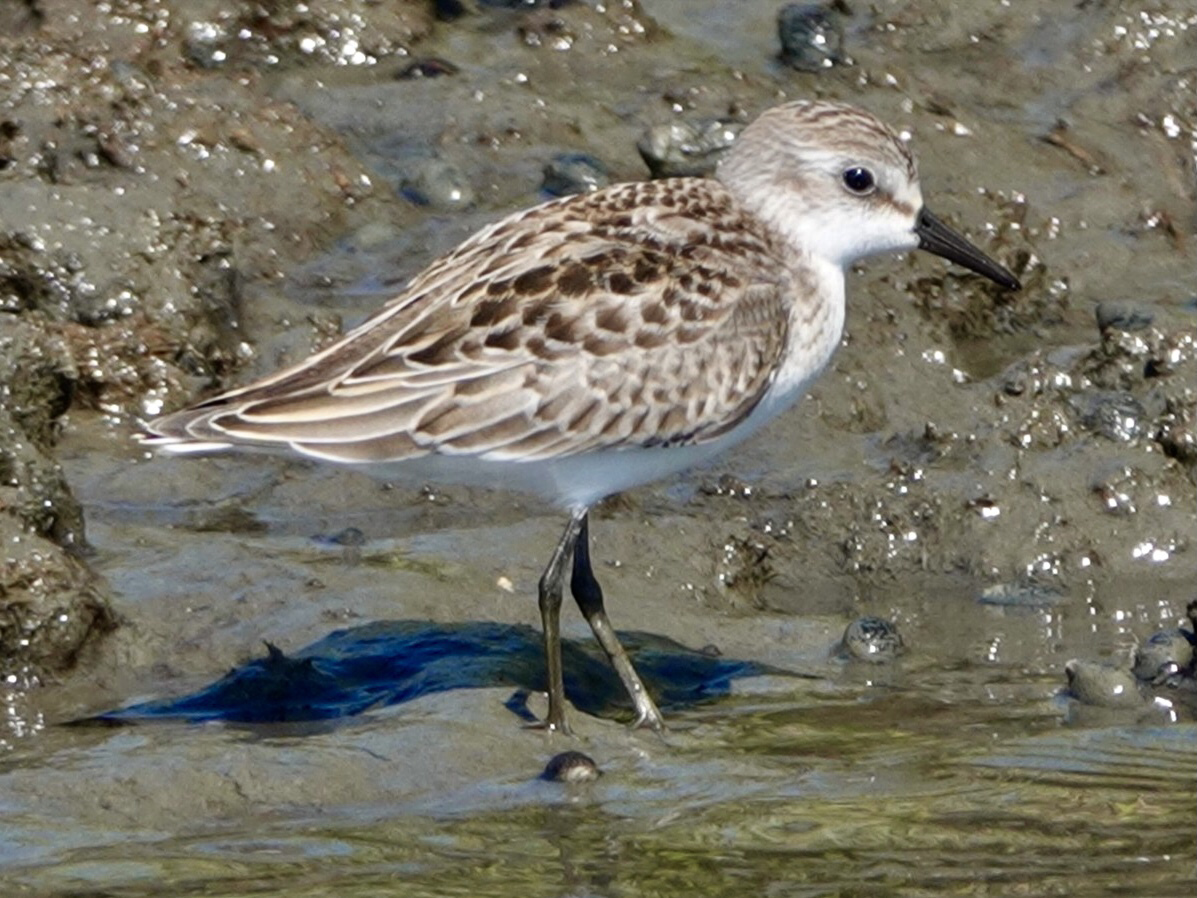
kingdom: Animalia
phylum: Chordata
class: Aves
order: Charadriiformes
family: Scolopacidae
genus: Calidris
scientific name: Calidris pusilla
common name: Semipalmated sandpiper
